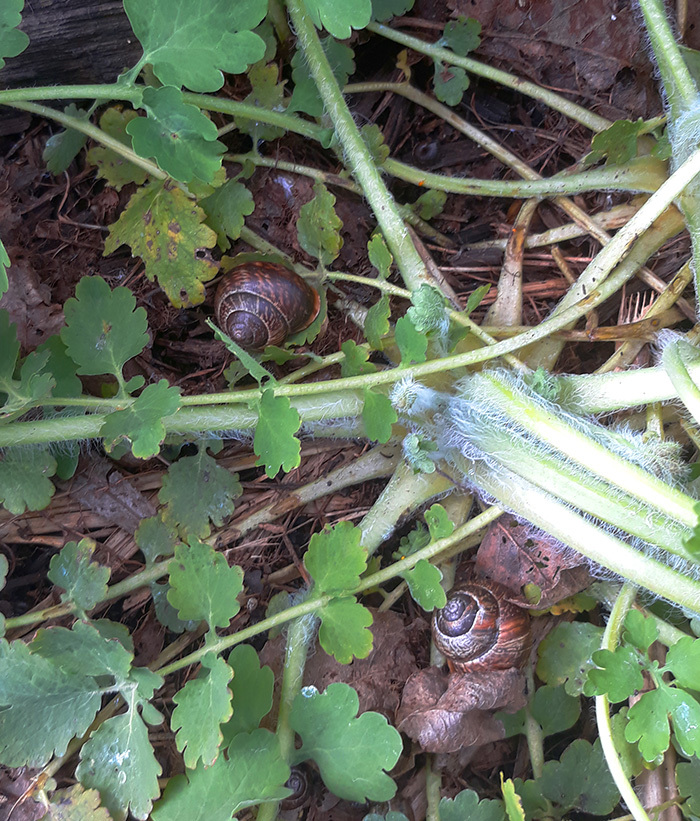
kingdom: Animalia
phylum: Mollusca
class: Gastropoda
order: Stylommatophora
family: Helicidae
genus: Arianta
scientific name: Arianta arbustorum
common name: Copse snail
